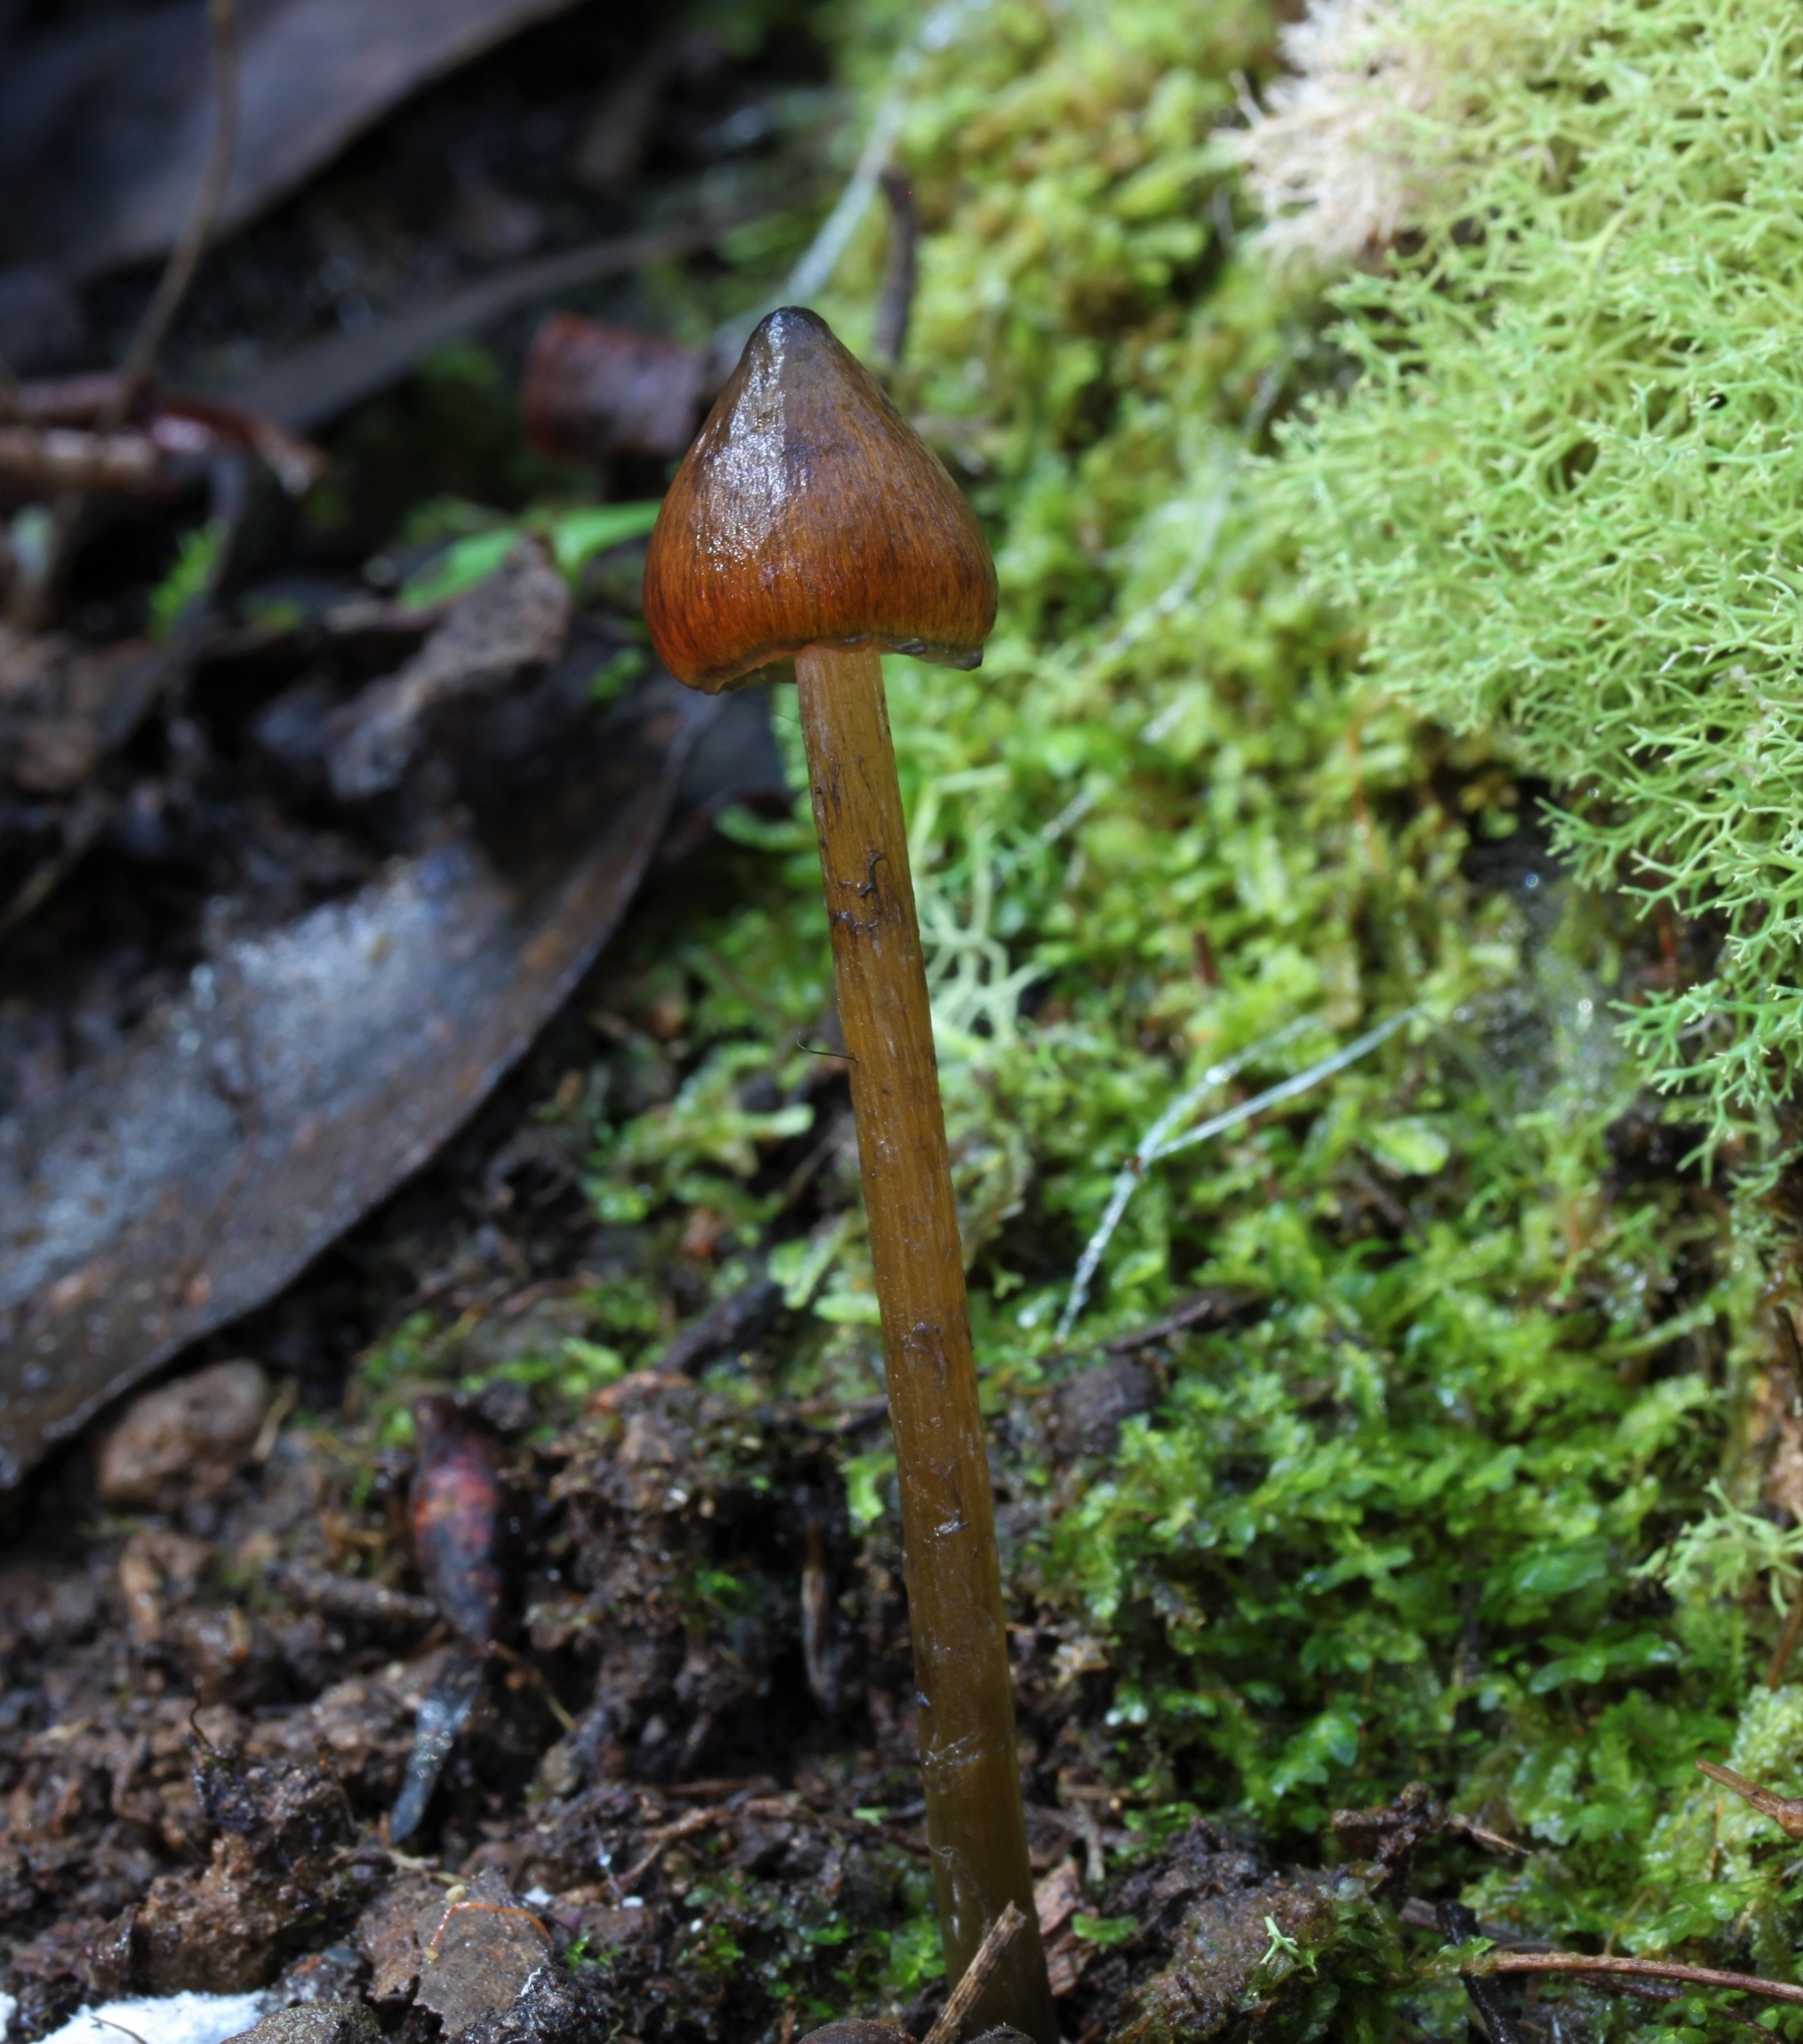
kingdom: Fungi
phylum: Basidiomycota
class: Agaricomycetes
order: Agaricales
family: Hygrophoraceae
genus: Hygrocybe
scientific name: Hygrocybe astatogala
